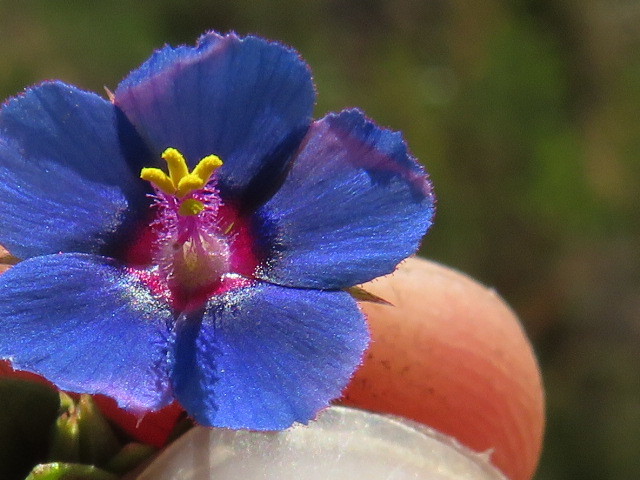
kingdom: Plantae
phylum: Tracheophyta
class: Magnoliopsida
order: Ericales
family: Primulaceae
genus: Lysimachia
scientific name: Lysimachia loeflingii
